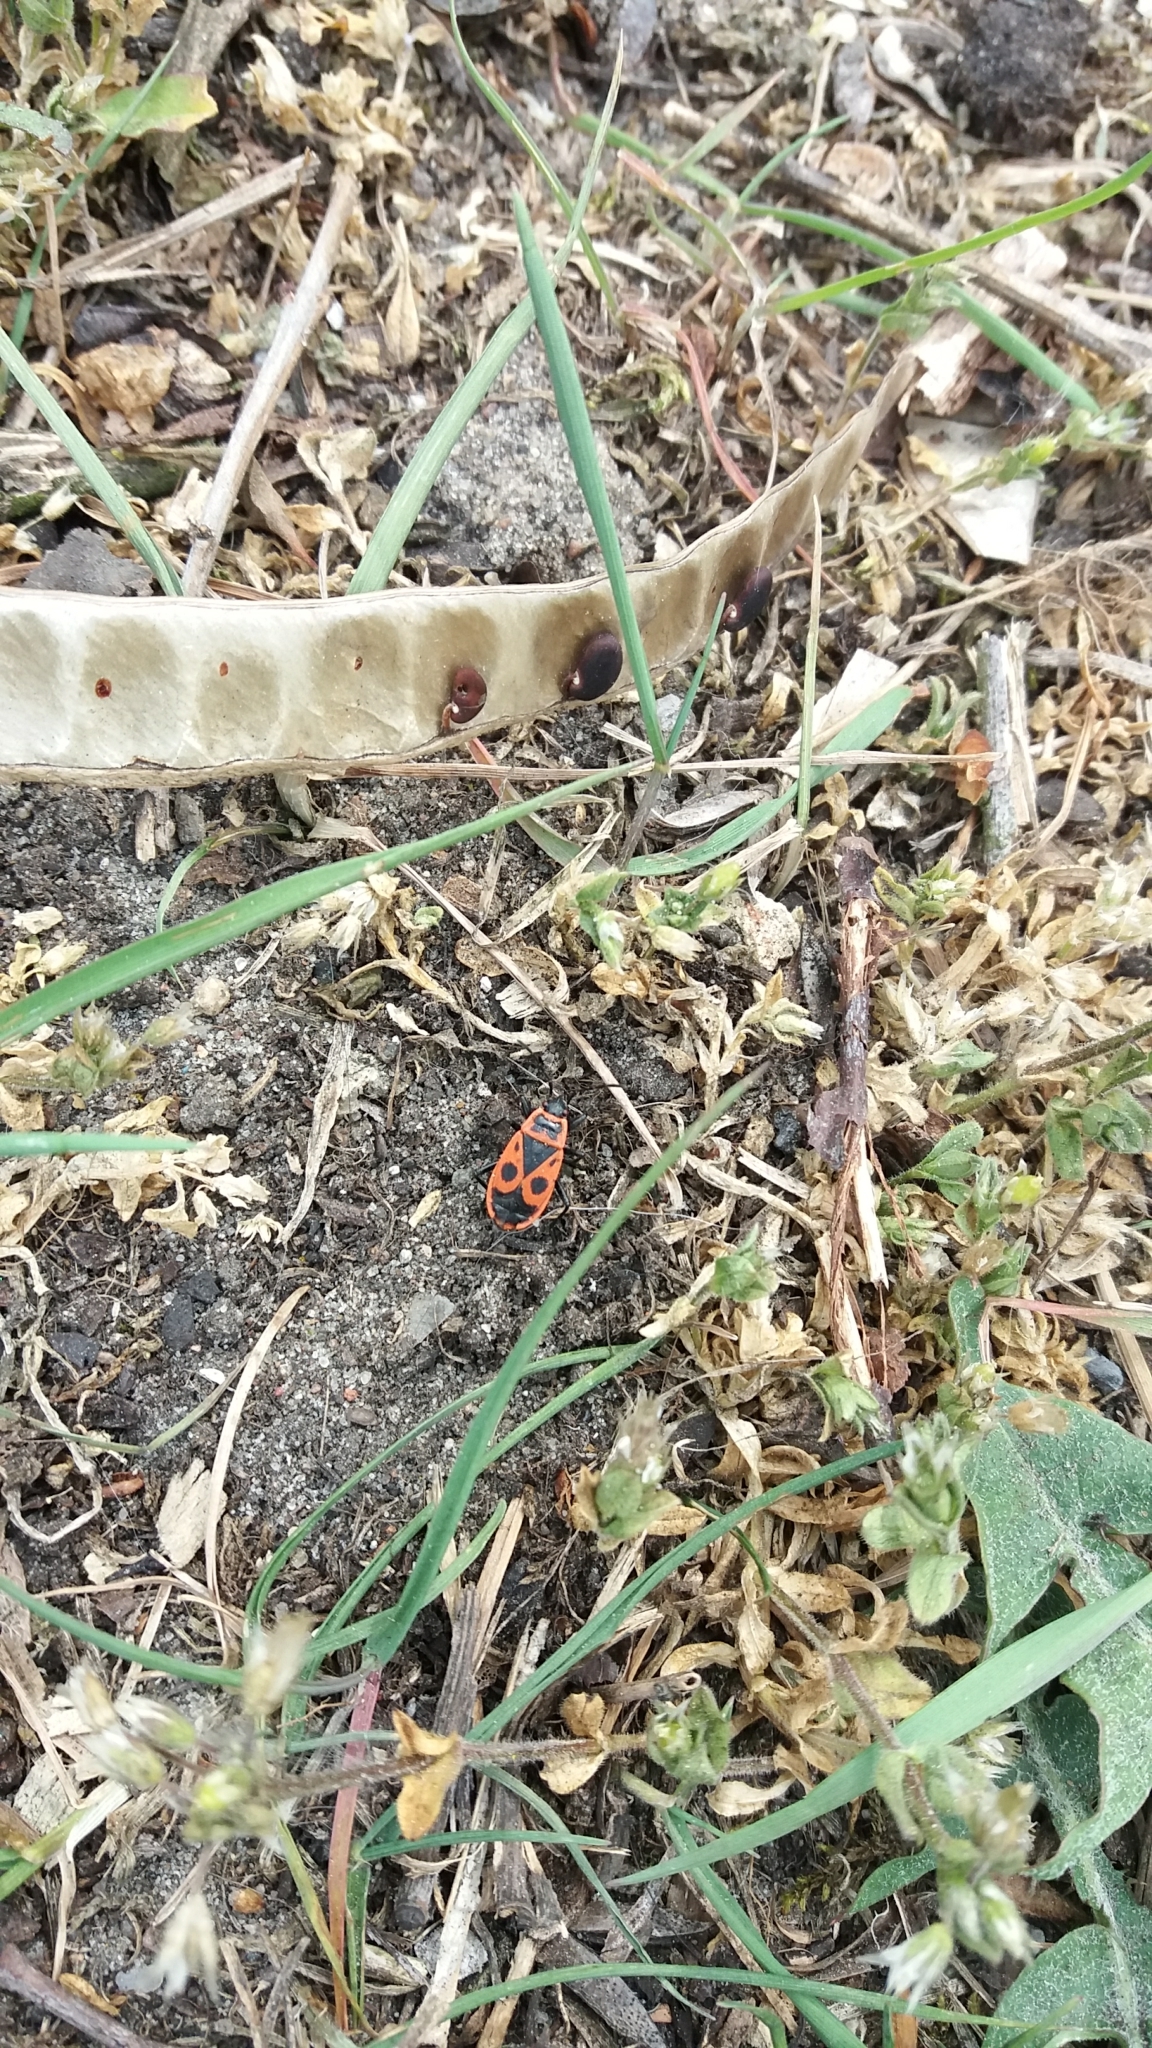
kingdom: Animalia
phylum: Arthropoda
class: Insecta
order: Hemiptera
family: Pyrrhocoridae
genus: Pyrrhocoris
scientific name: Pyrrhocoris apterus
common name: Firebug
